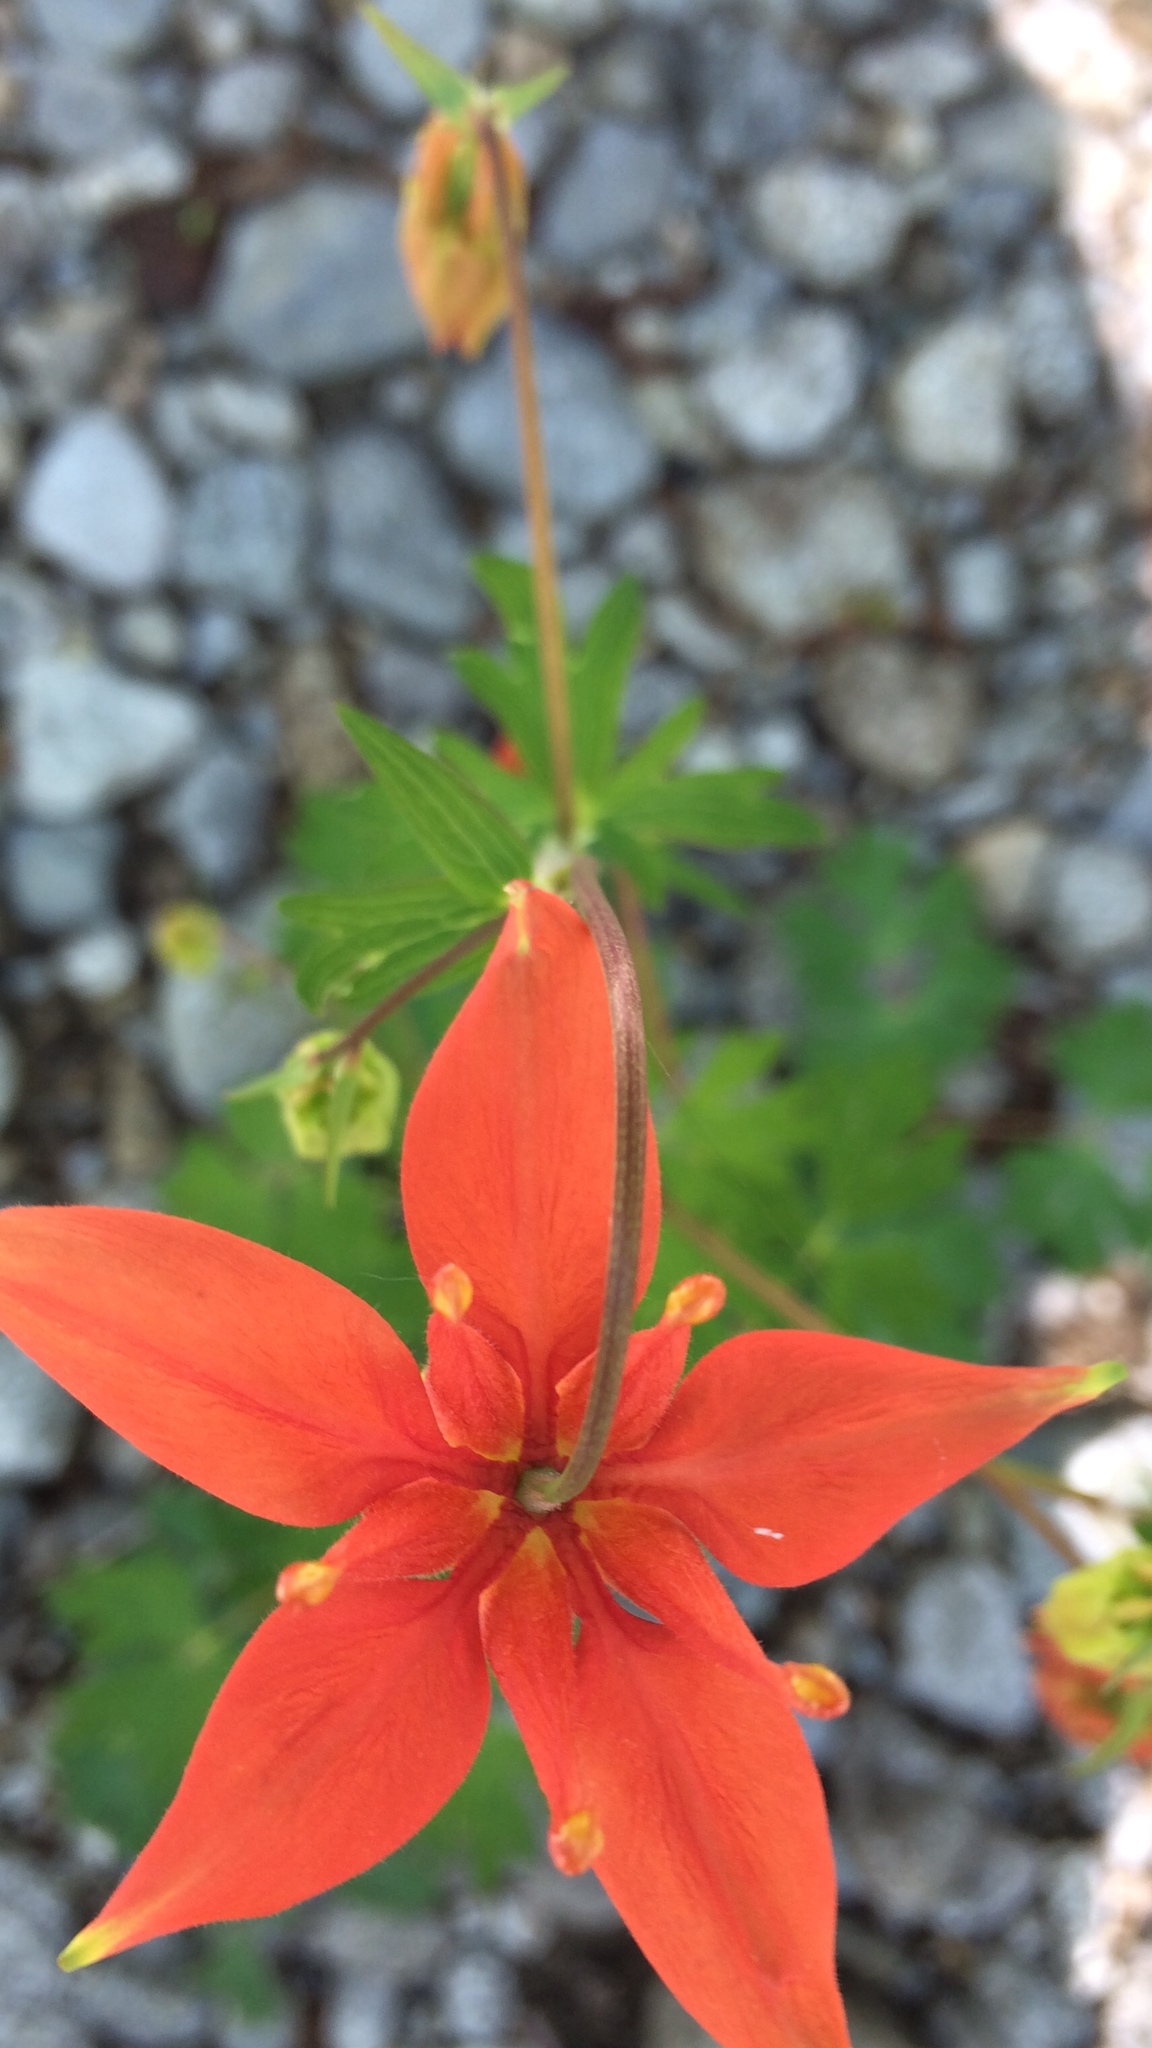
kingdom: Plantae
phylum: Tracheophyta
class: Magnoliopsida
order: Ranunculales
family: Ranunculaceae
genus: Aquilegia
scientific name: Aquilegia formosa
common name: Sitka columbine
